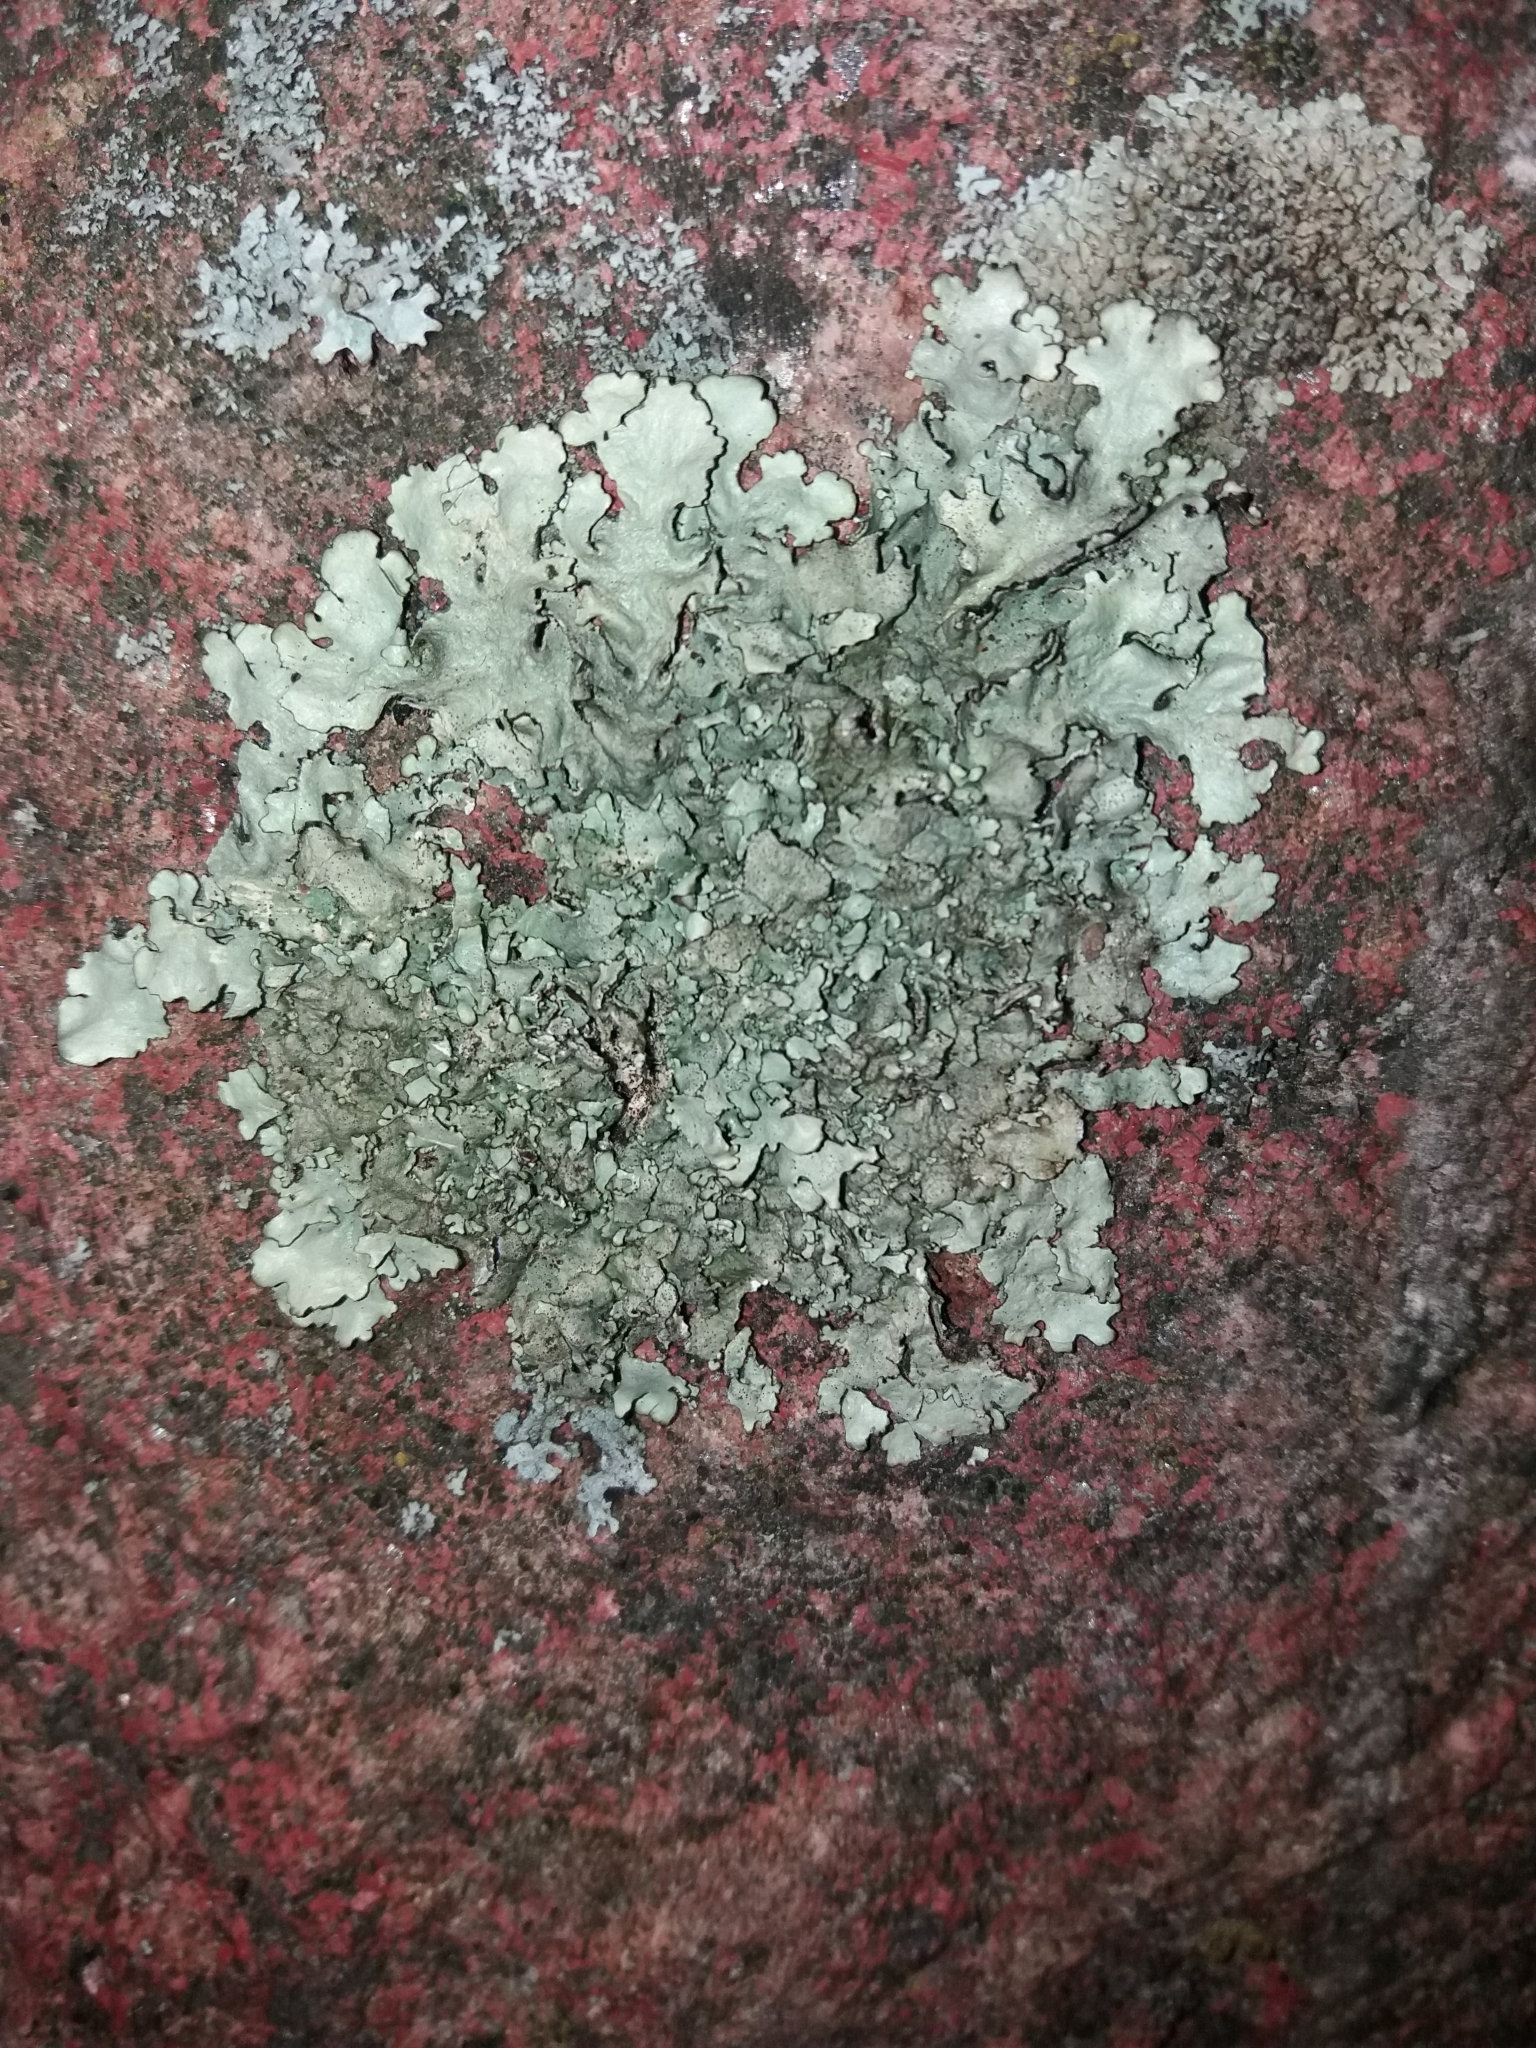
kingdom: Fungi
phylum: Ascomycota
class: Lecanoromycetes
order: Lecanorales
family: Parmeliaceae
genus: Xanthoparmelia
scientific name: Xanthoparmelia conspersa
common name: Peppered rock shield
